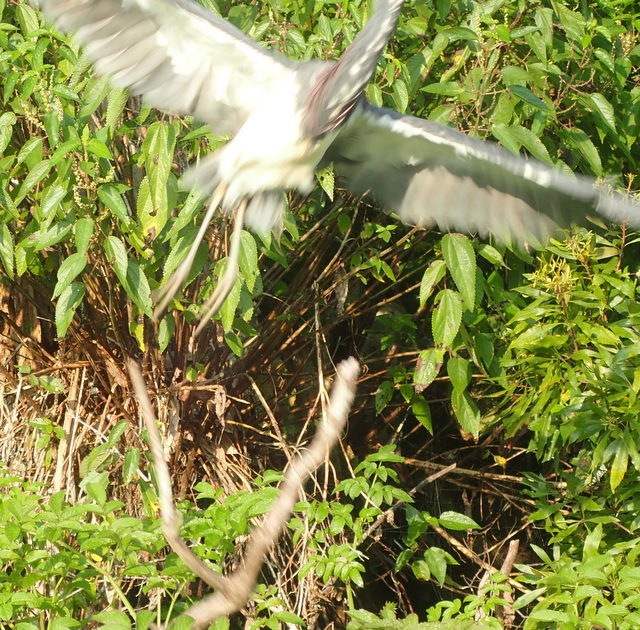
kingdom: Animalia
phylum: Chordata
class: Aves
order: Pelecaniformes
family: Ardeidae
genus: Egretta
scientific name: Egretta tricolor
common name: Tricolored heron
